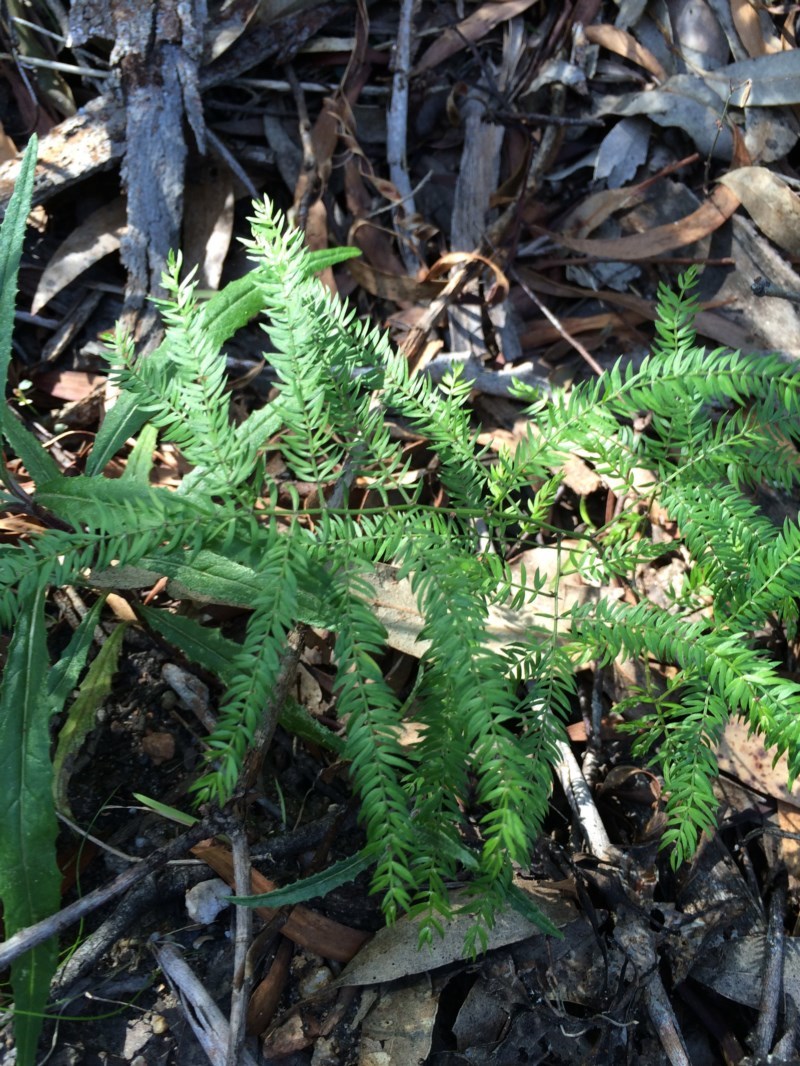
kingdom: Plantae
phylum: Tracheophyta
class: Liliopsida
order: Asparagales
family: Asparagaceae
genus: Asparagus
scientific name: Asparagus scandens
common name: Asparagus-fern
